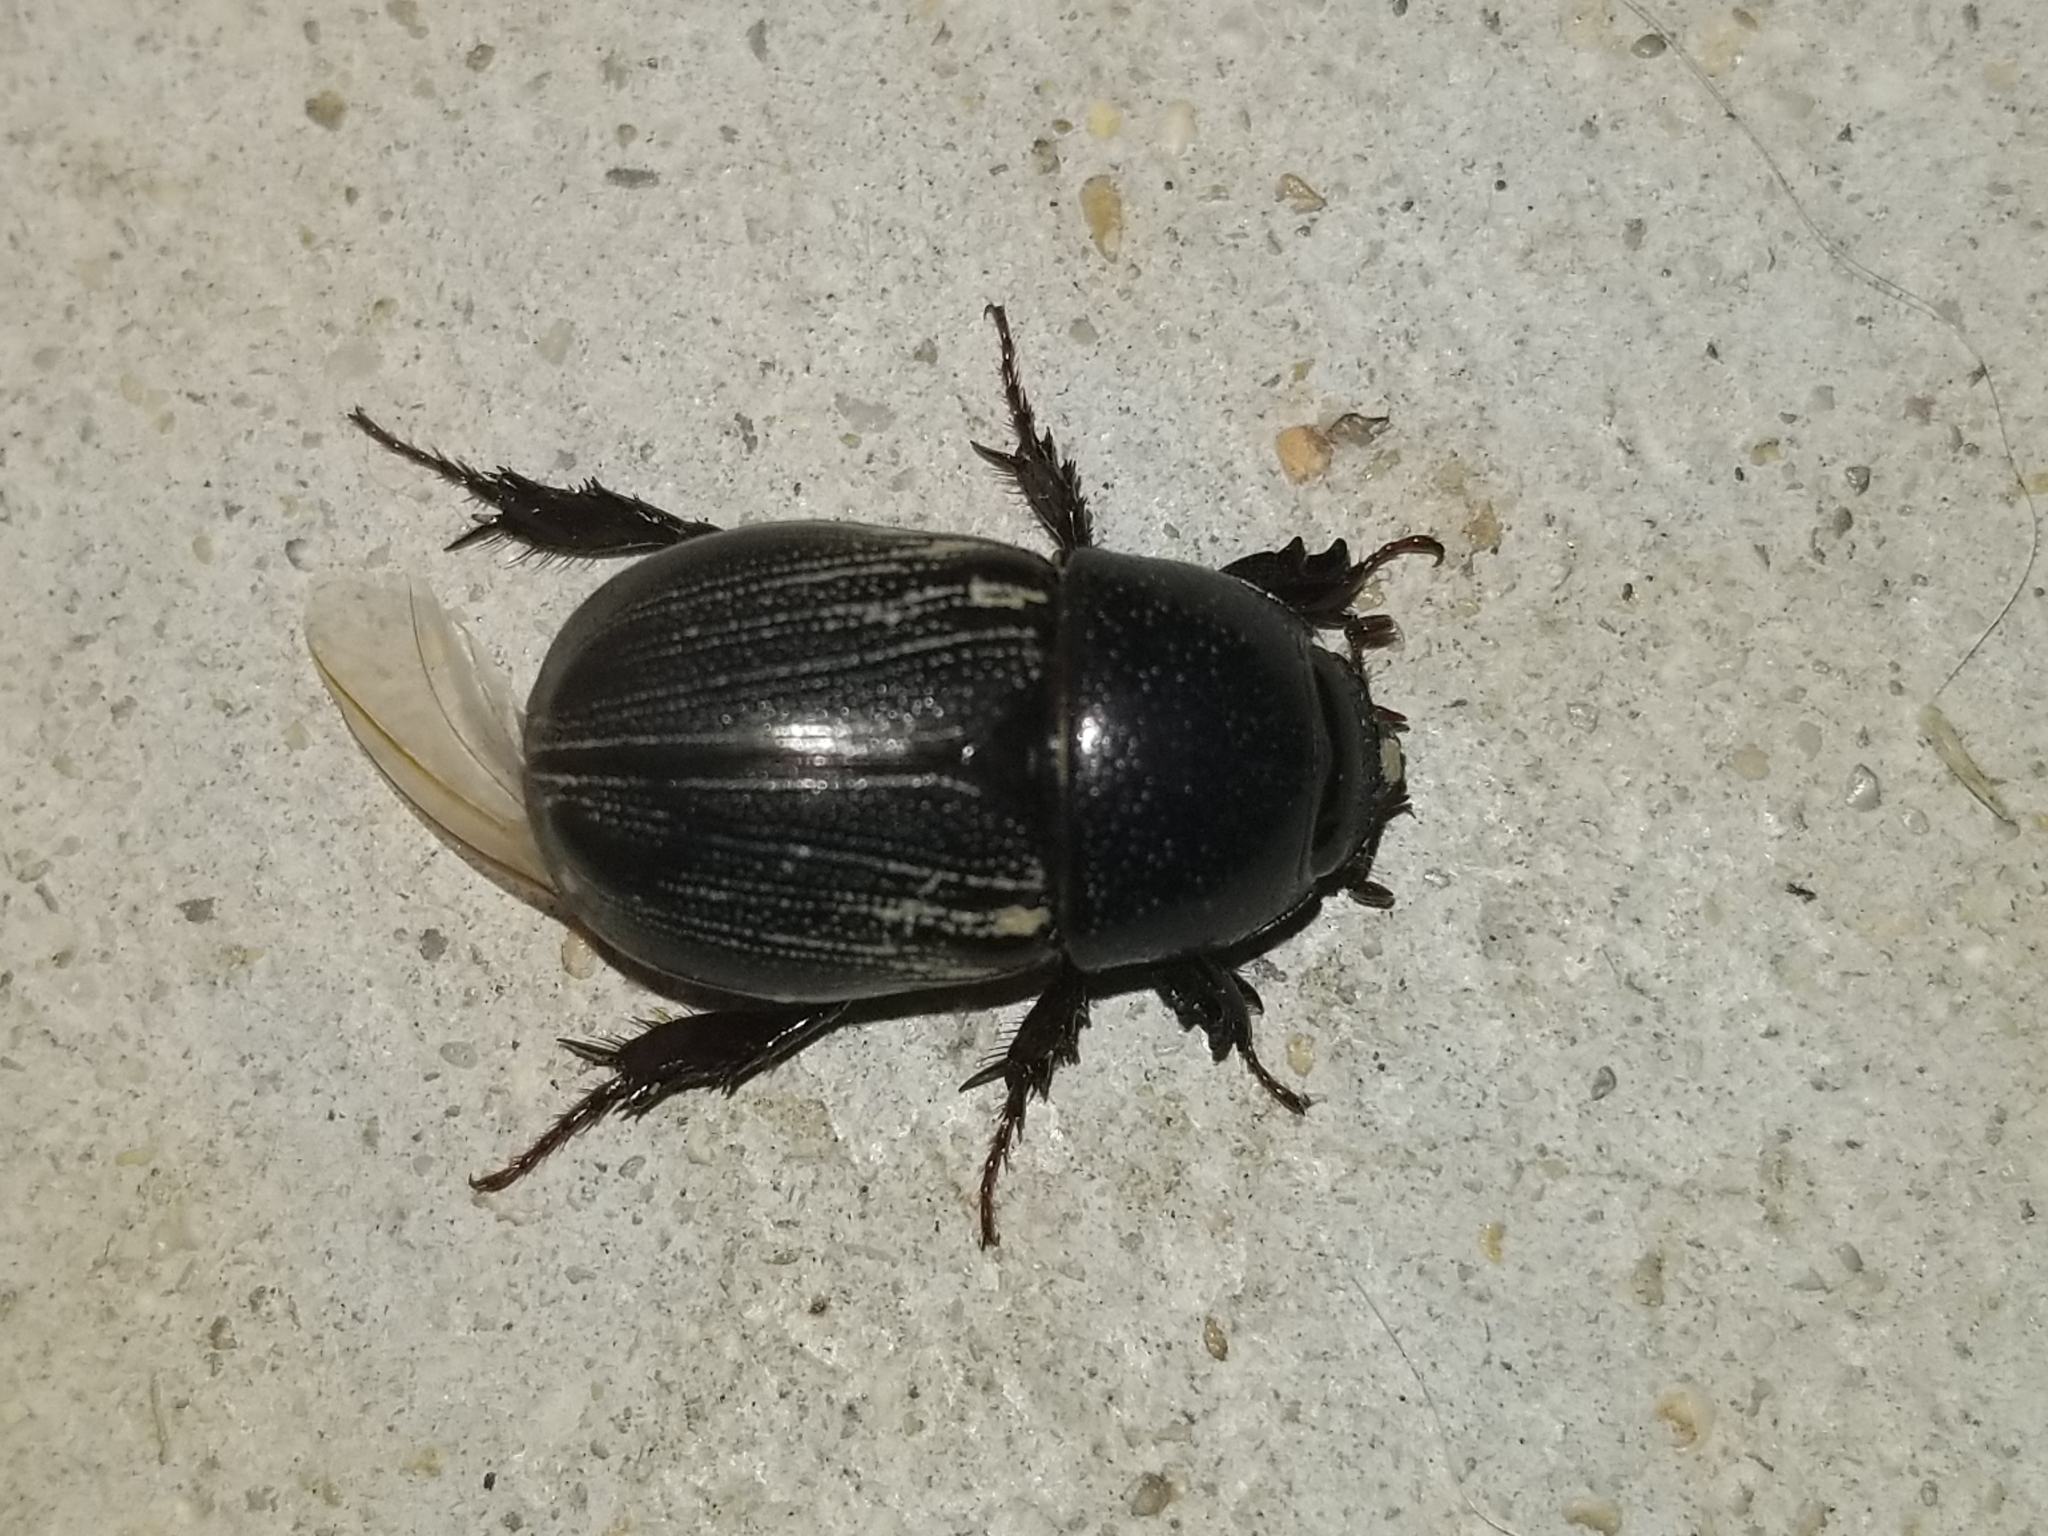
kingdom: Animalia
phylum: Arthropoda
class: Insecta
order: Coleoptera
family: Scarabaeidae
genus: Euetheola
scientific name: Euetheola humilis
